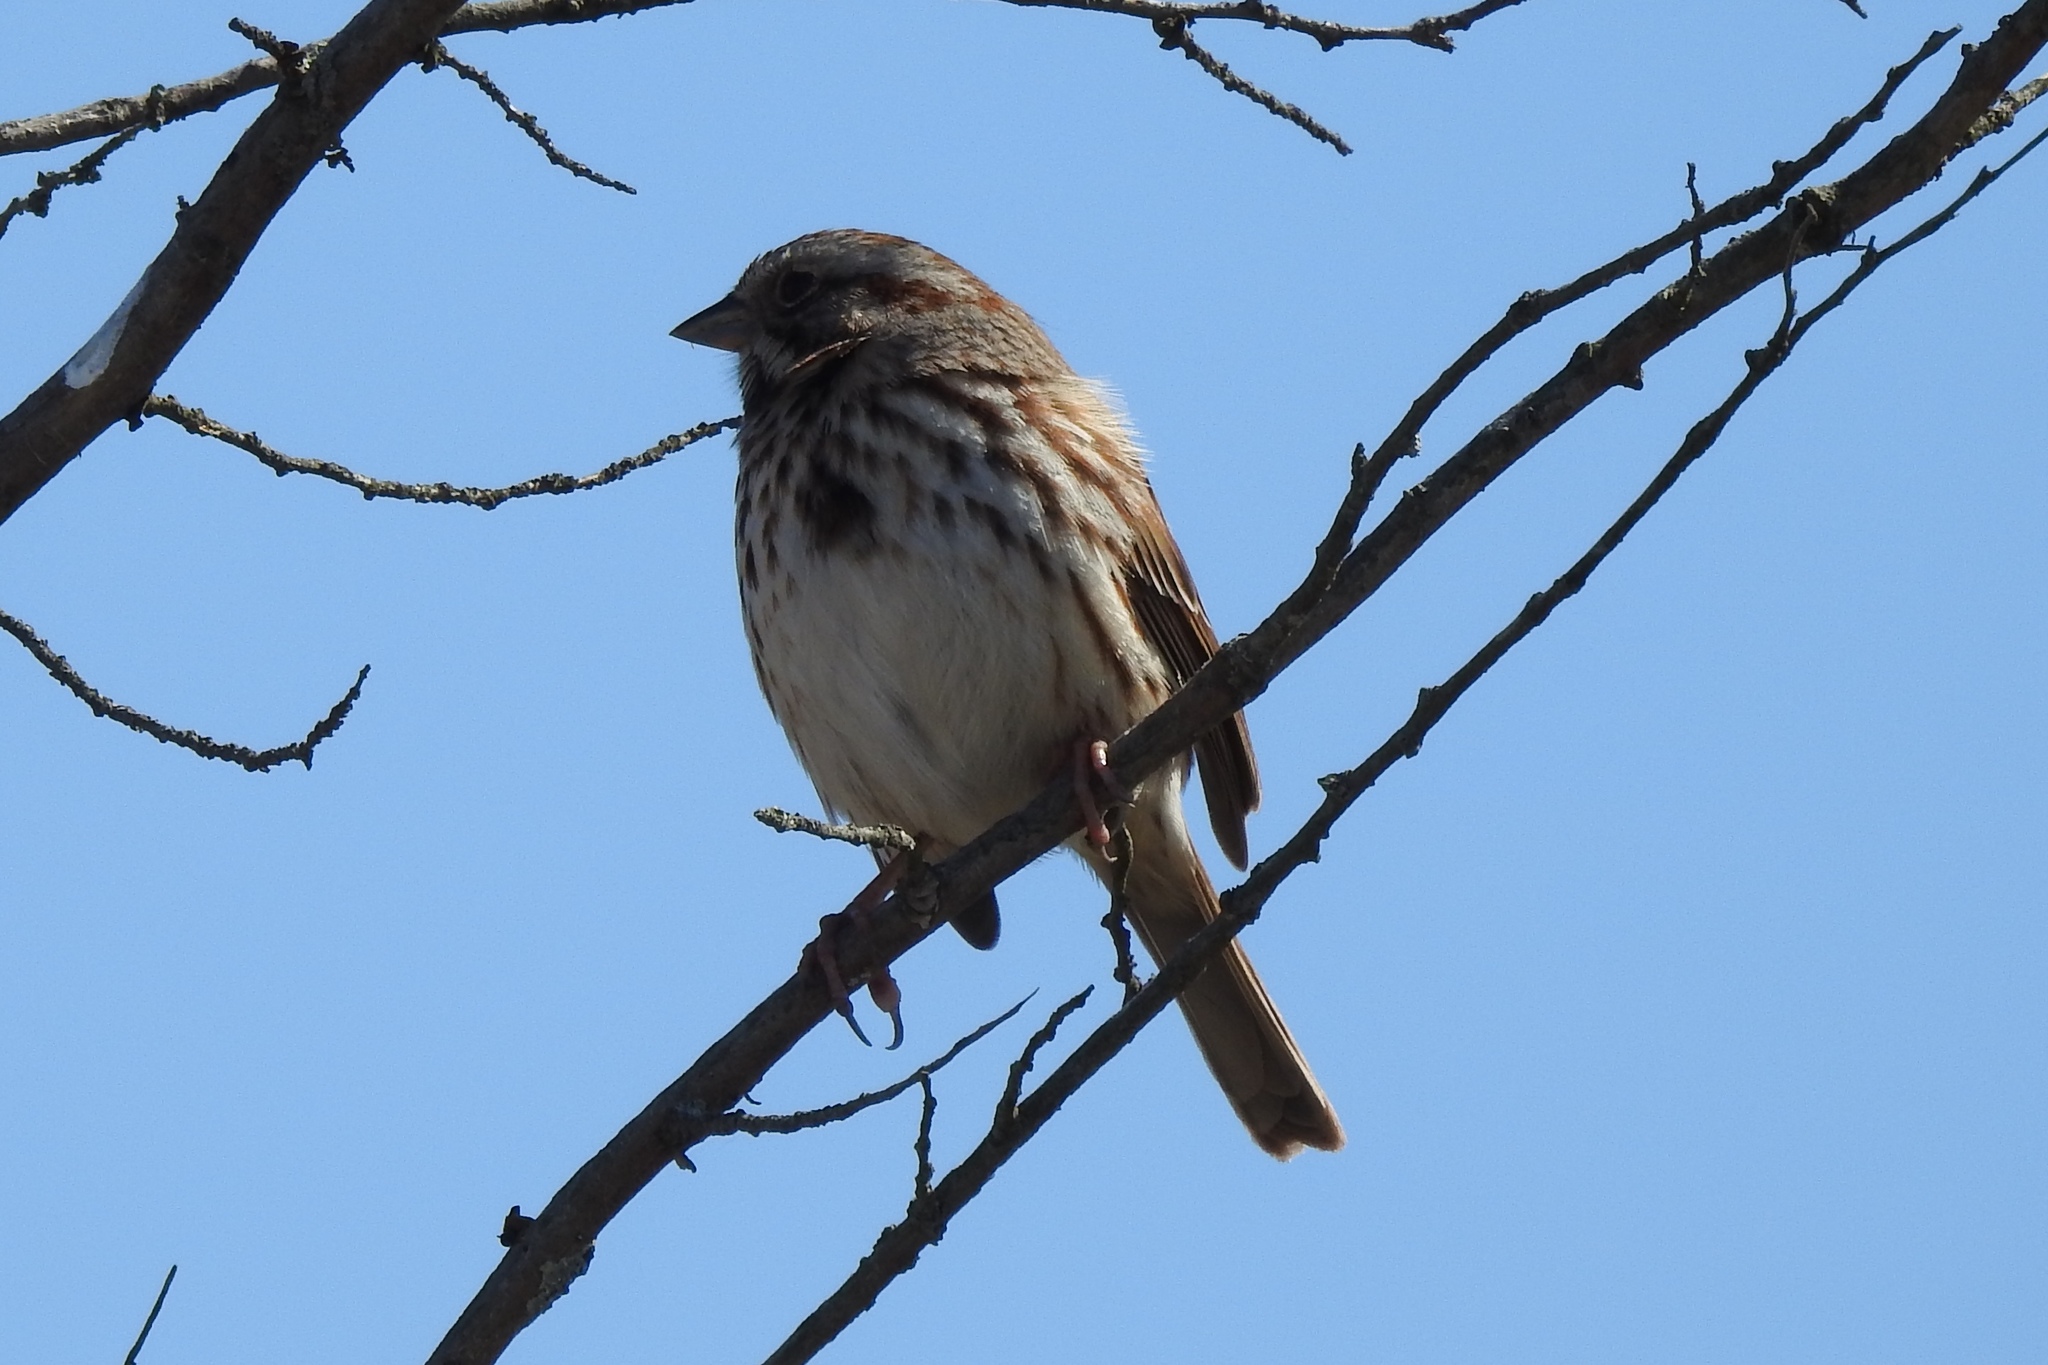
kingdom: Animalia
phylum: Chordata
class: Aves
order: Passeriformes
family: Passerellidae
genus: Melospiza
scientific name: Melospiza melodia
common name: Song sparrow
